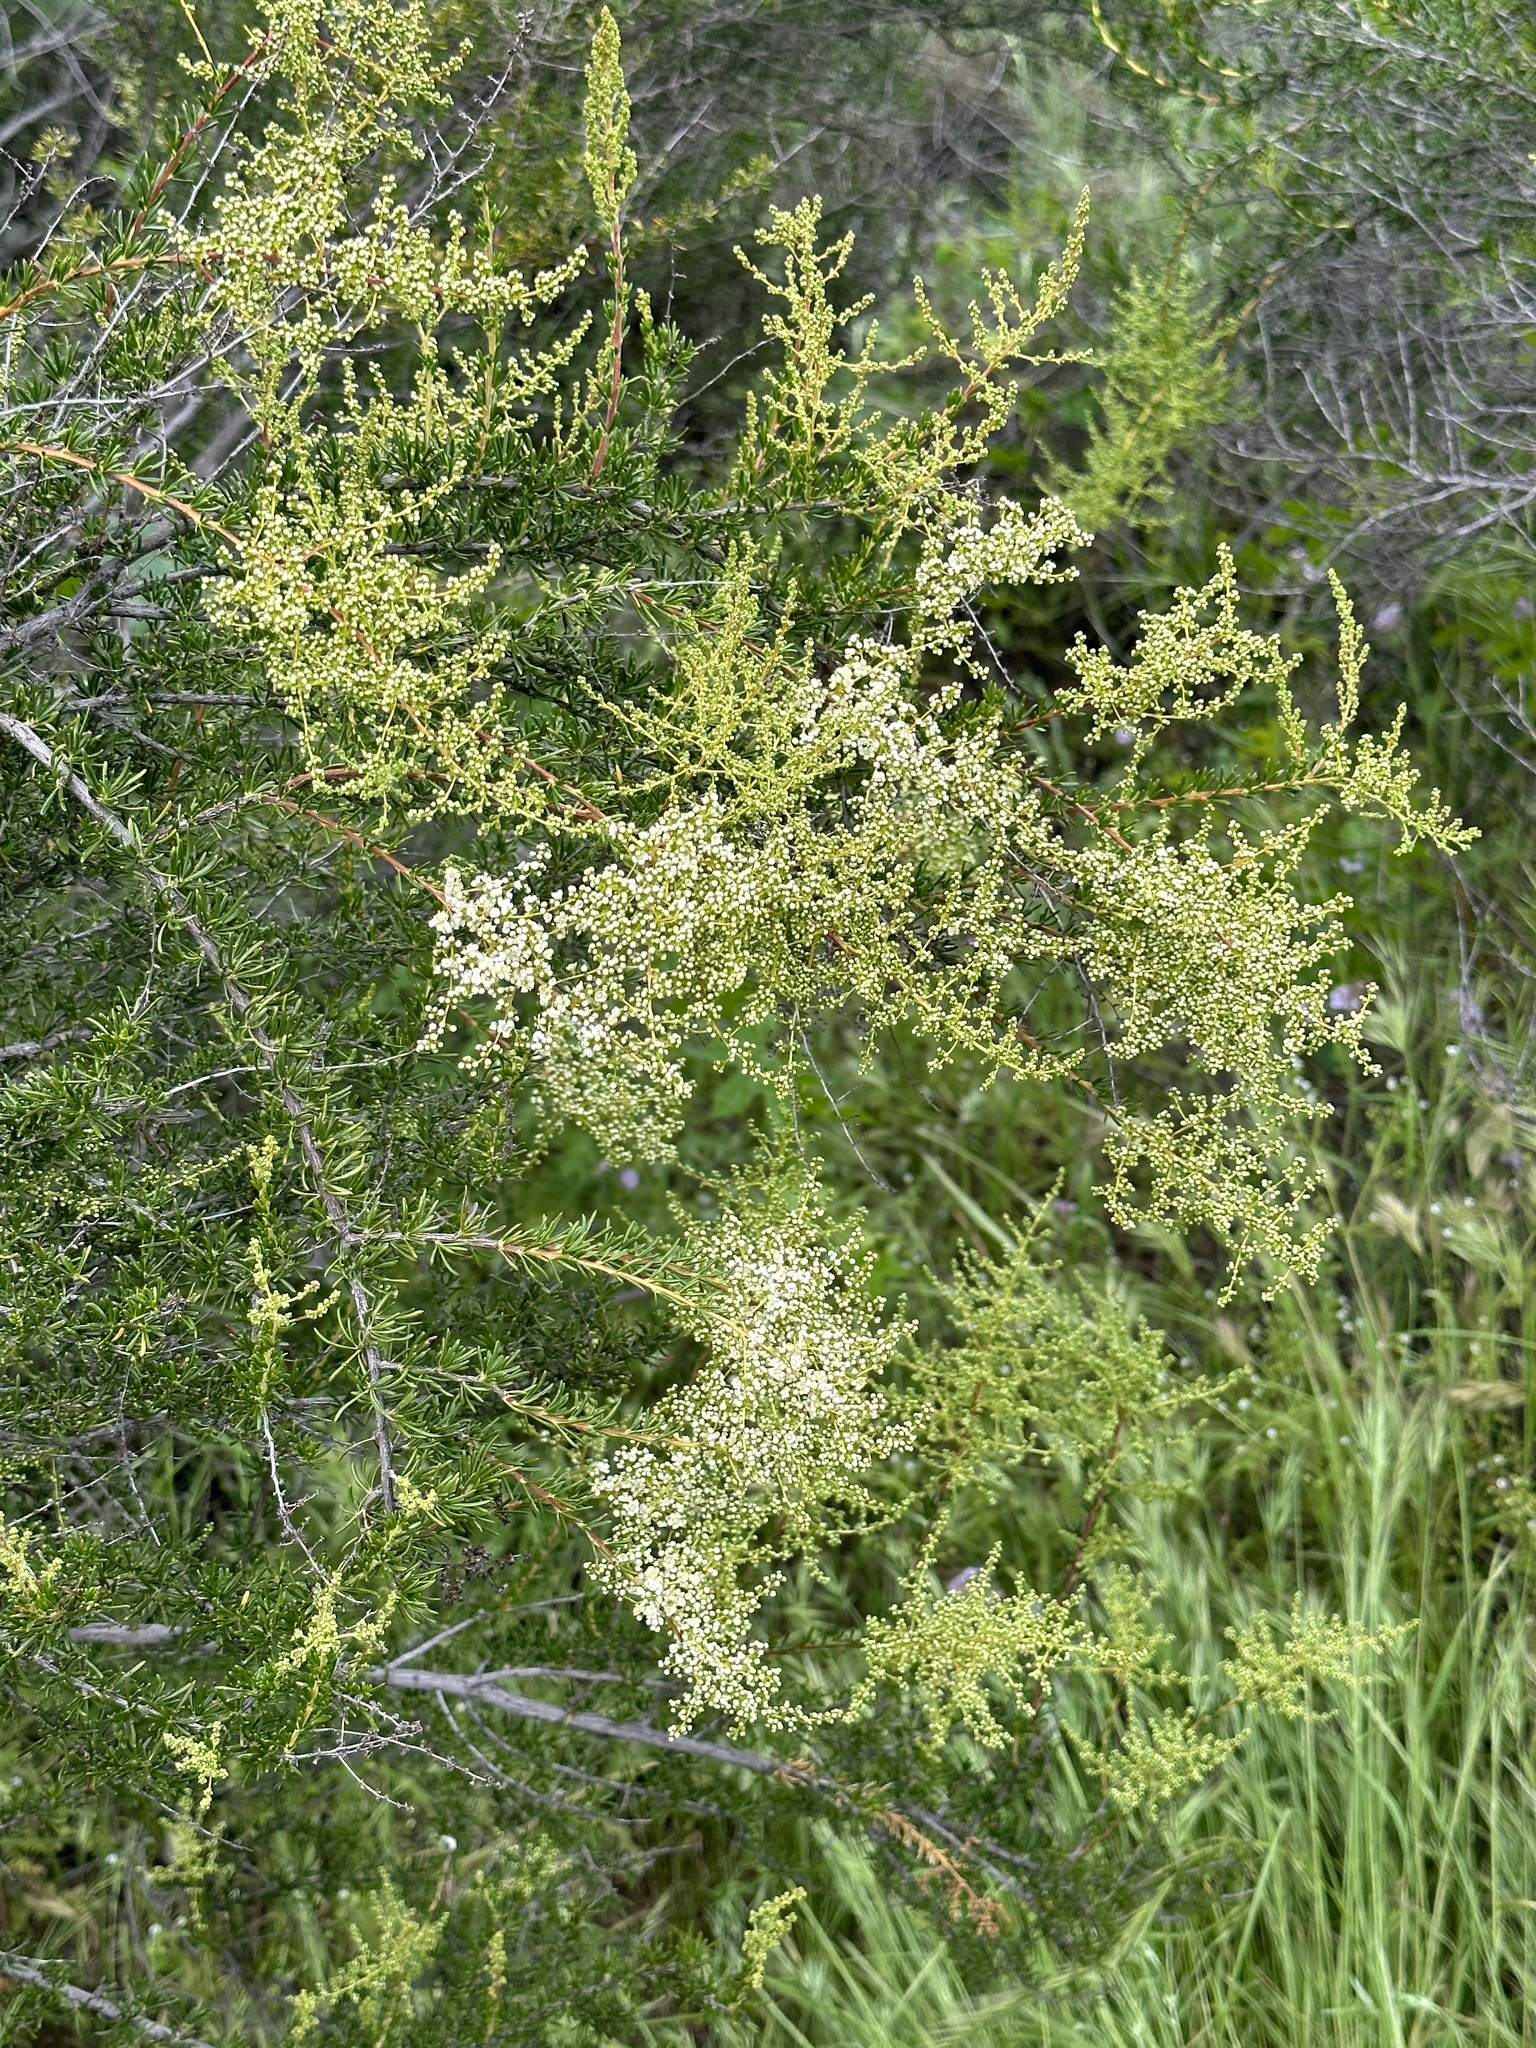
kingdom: Plantae
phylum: Tracheophyta
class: Magnoliopsida
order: Rosales
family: Rosaceae
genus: Adenostoma
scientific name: Adenostoma fasciculatum
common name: Chamise
